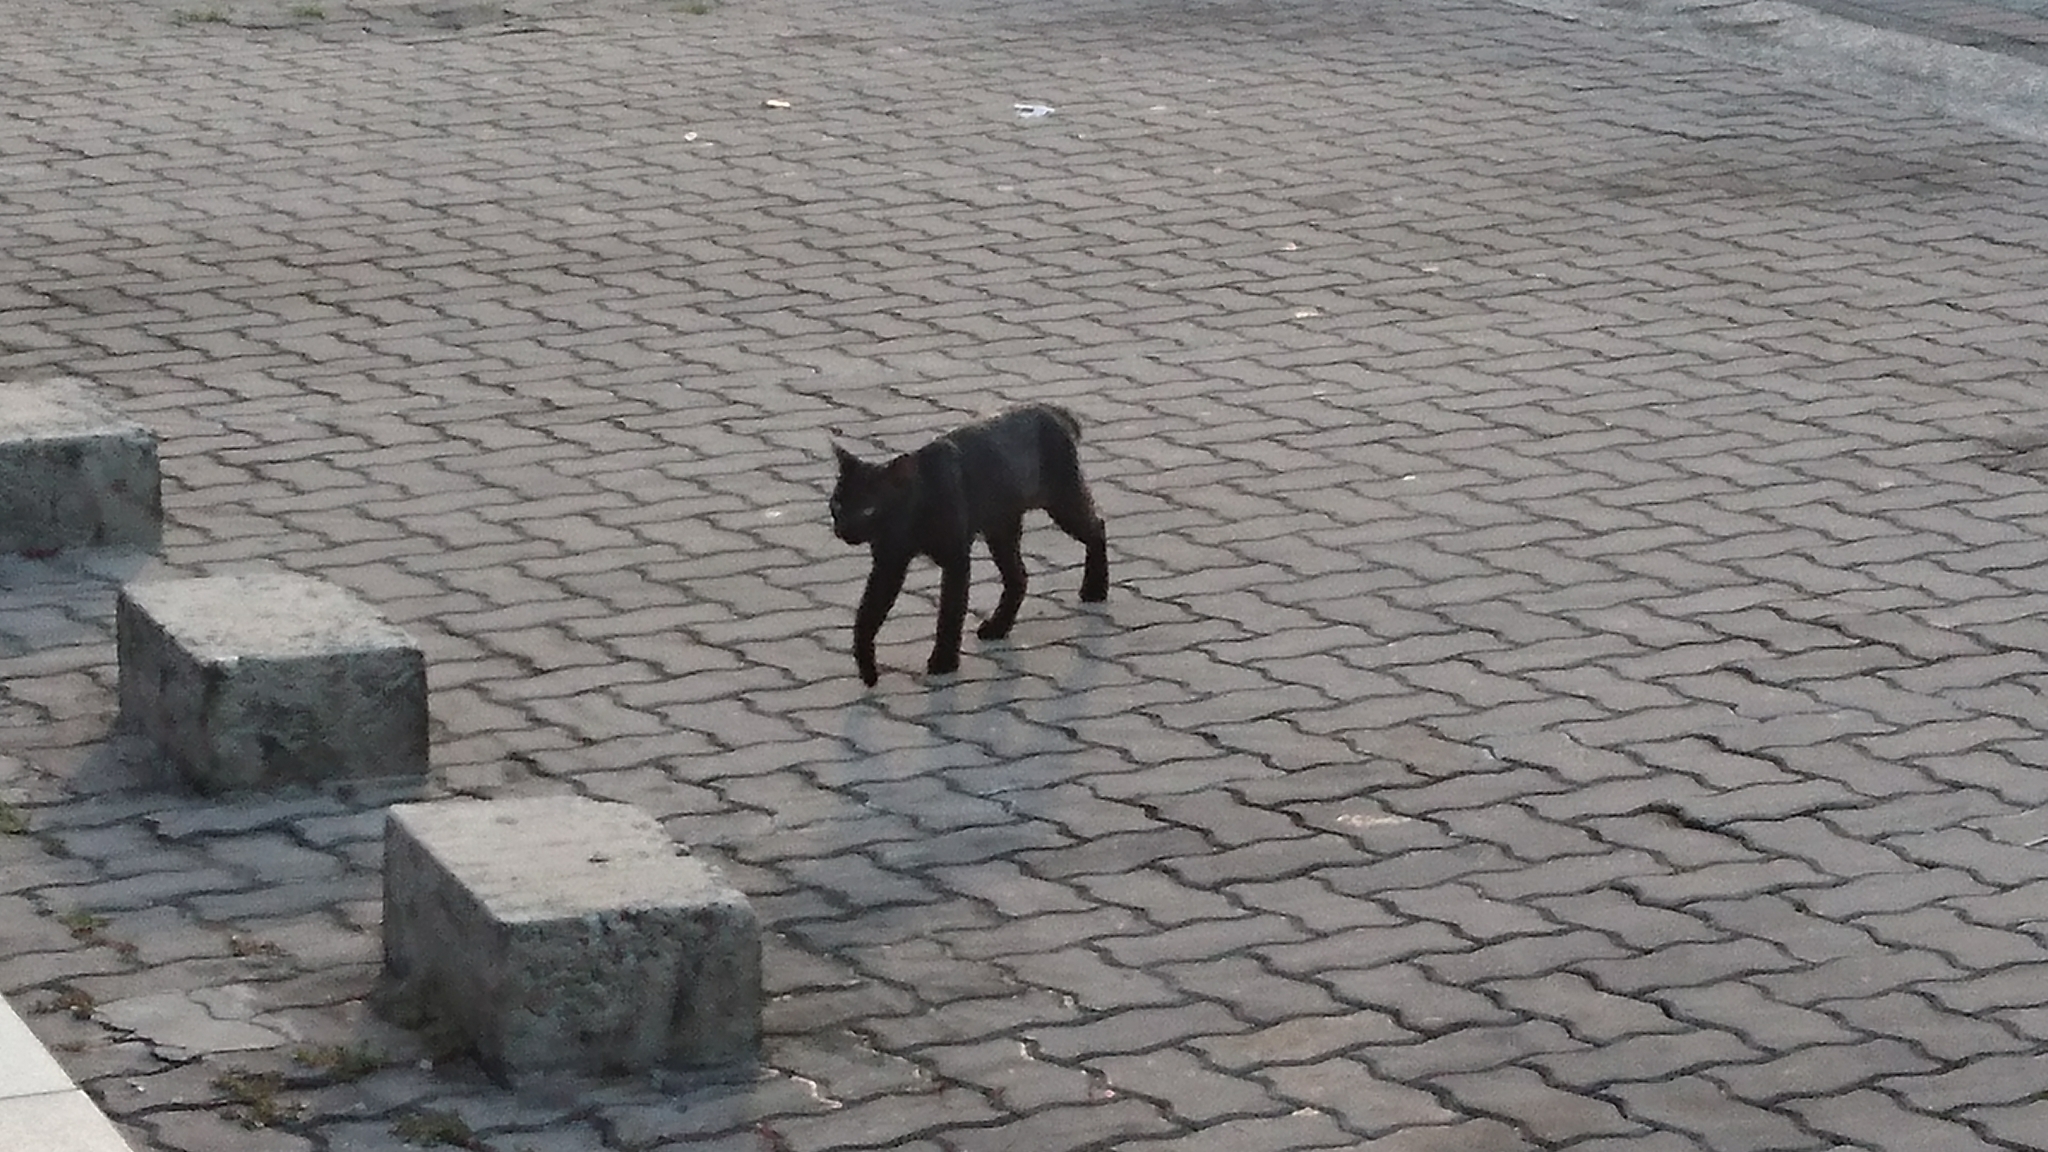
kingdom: Animalia
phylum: Chordata
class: Mammalia
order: Carnivora
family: Felidae
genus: Felis
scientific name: Felis catus
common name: Domestic cat
